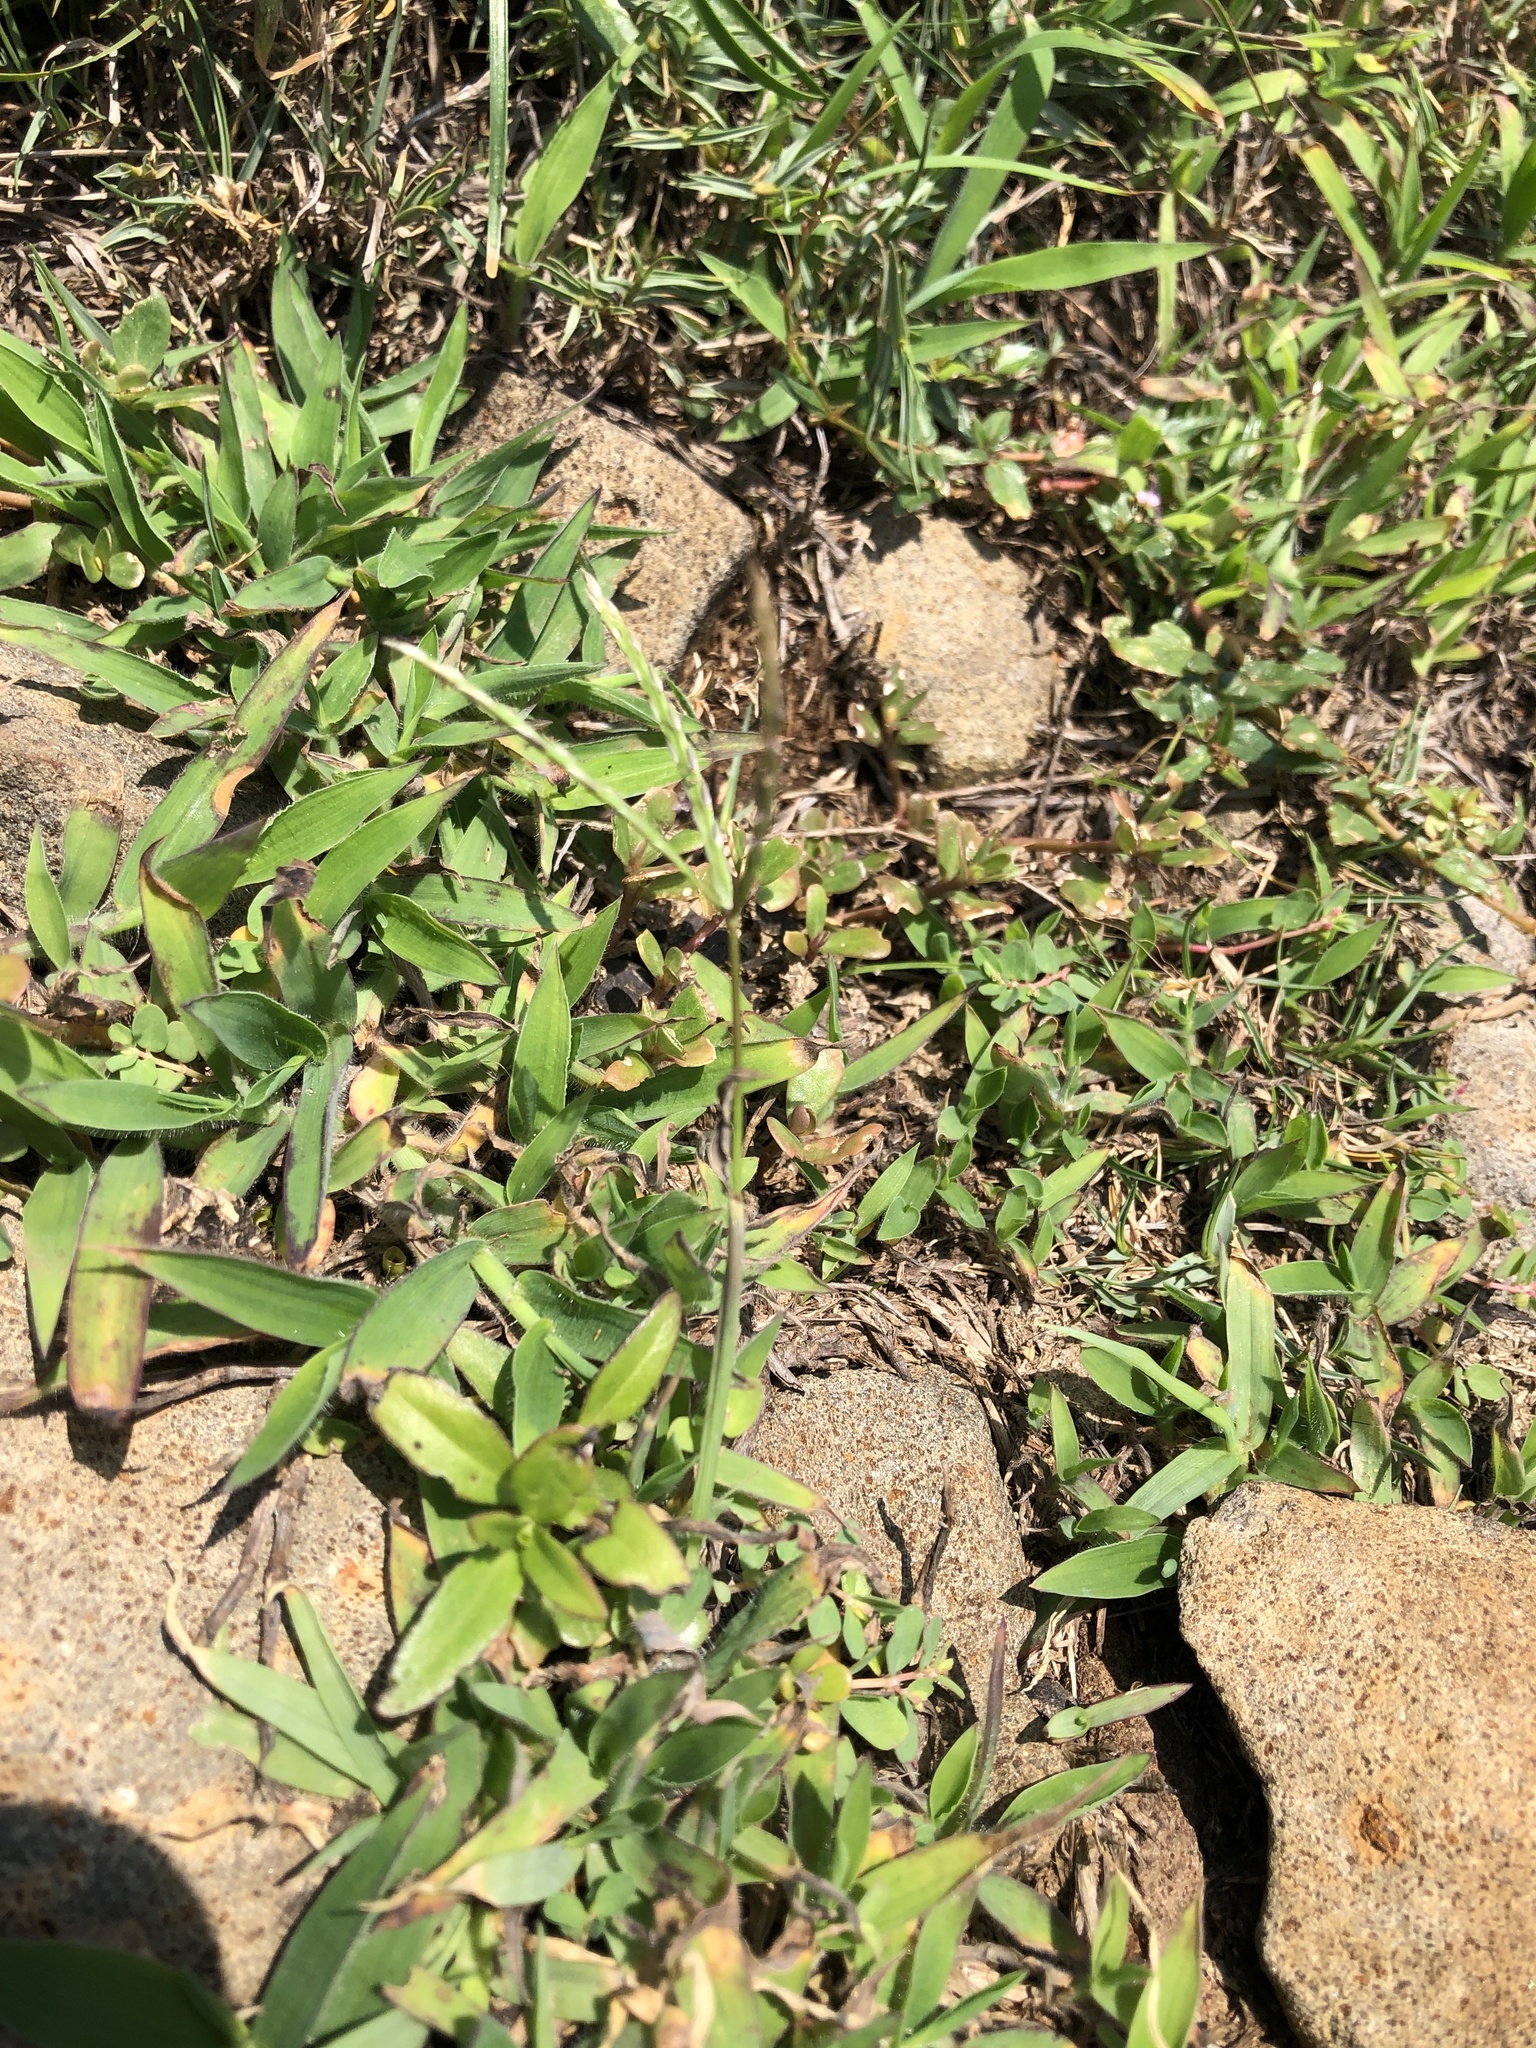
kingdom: Plantae
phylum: Tracheophyta
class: Liliopsida
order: Poales
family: Poaceae
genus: Digitaria
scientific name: Digitaria sericea
